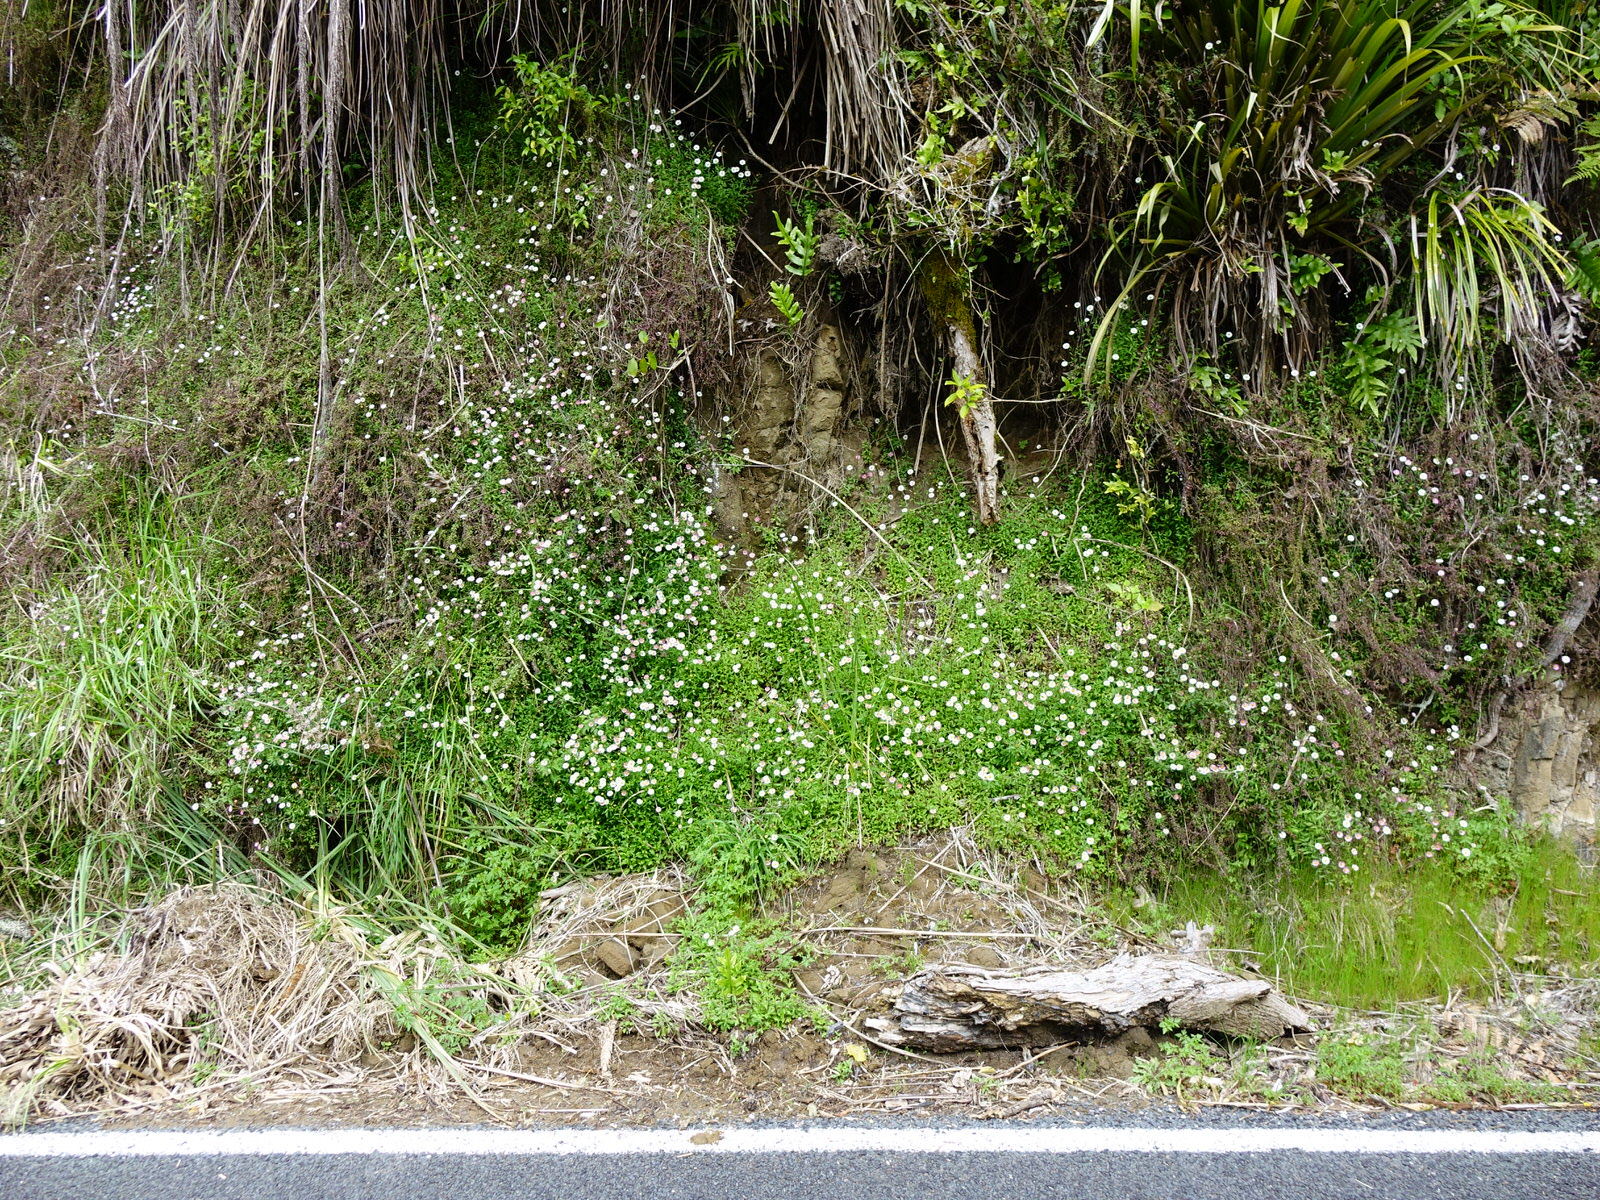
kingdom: Plantae
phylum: Tracheophyta
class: Magnoliopsida
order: Asterales
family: Asteraceae
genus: Erigeron
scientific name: Erigeron karvinskianus
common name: Mexican fleabane
